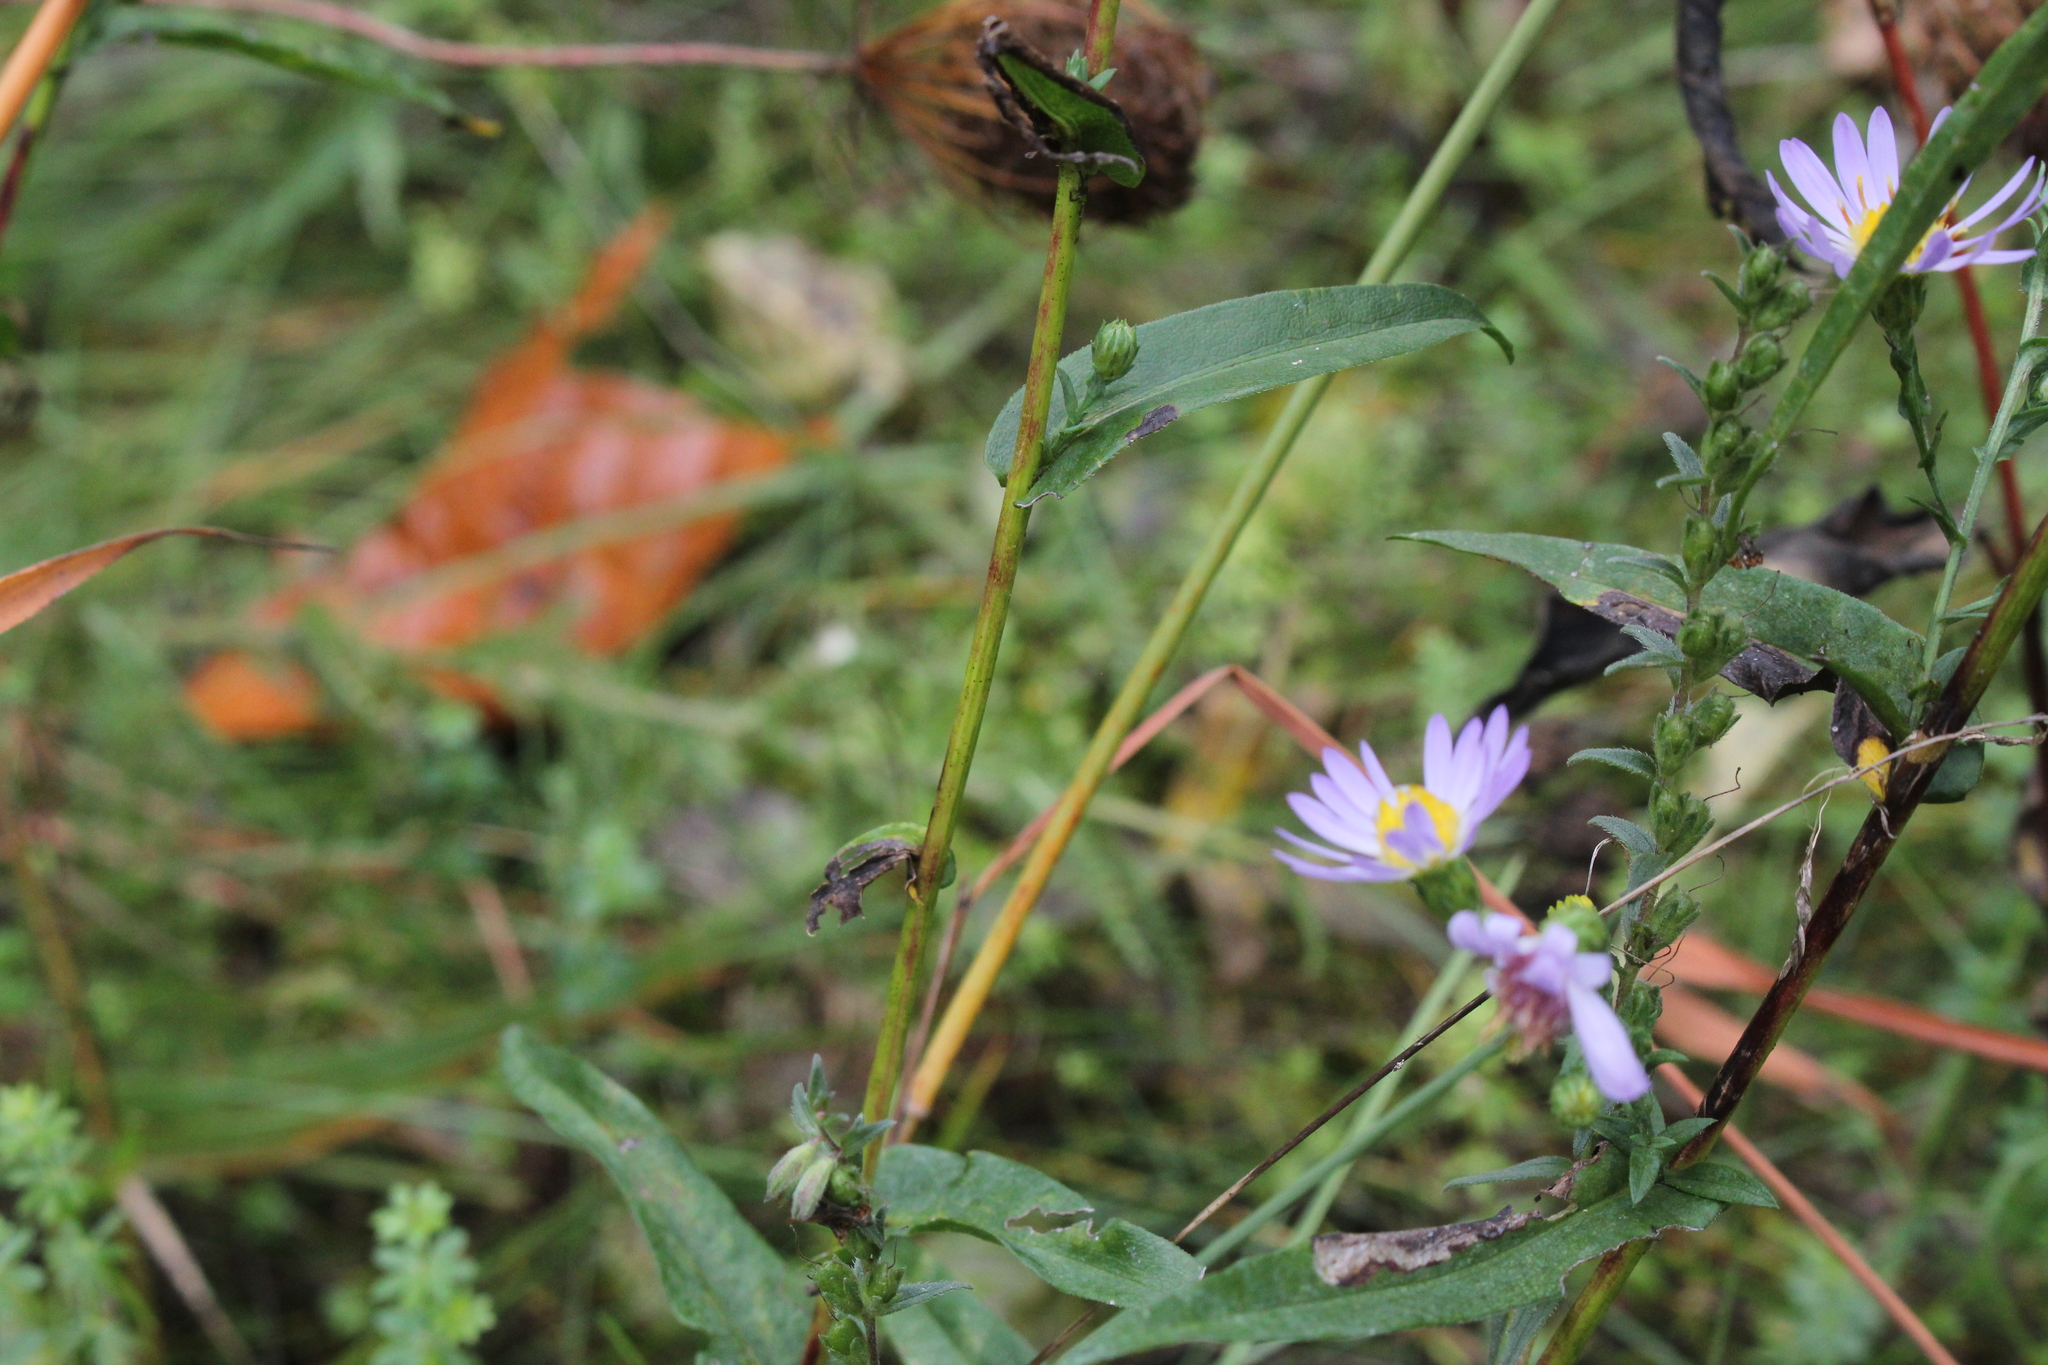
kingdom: Plantae
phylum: Tracheophyta
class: Magnoliopsida
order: Asterales
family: Asteraceae
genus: Symphyotrichum
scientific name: Symphyotrichum laeve
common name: Glaucous aster
